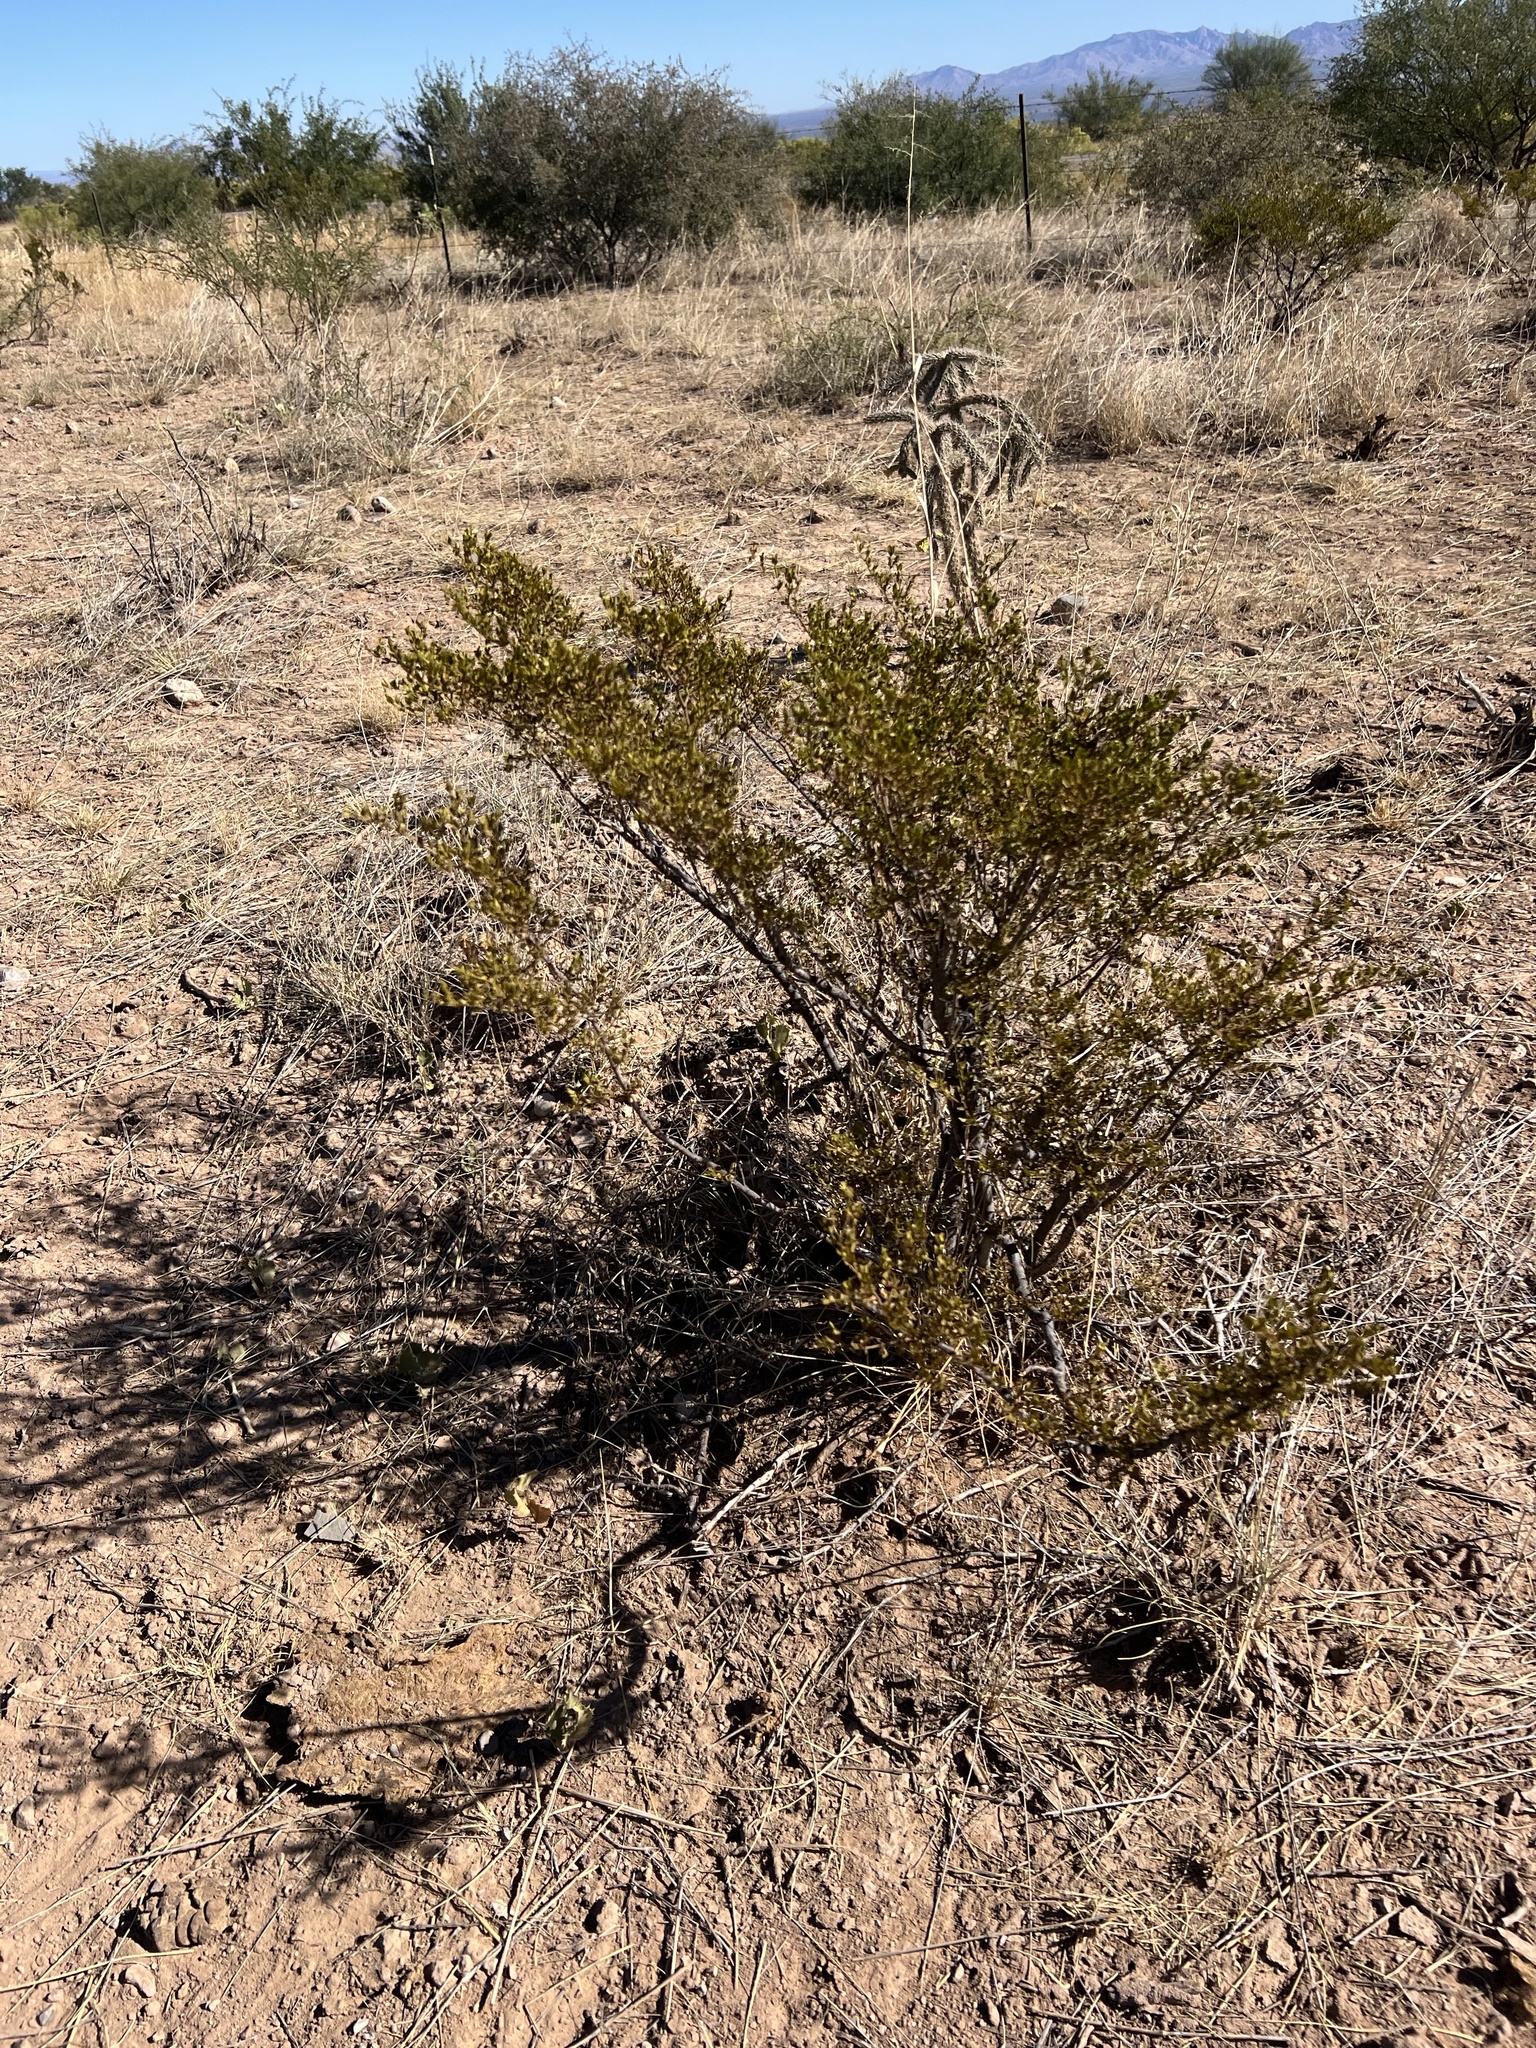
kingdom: Plantae
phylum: Tracheophyta
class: Magnoliopsida
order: Zygophyllales
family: Zygophyllaceae
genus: Larrea
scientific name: Larrea tridentata
